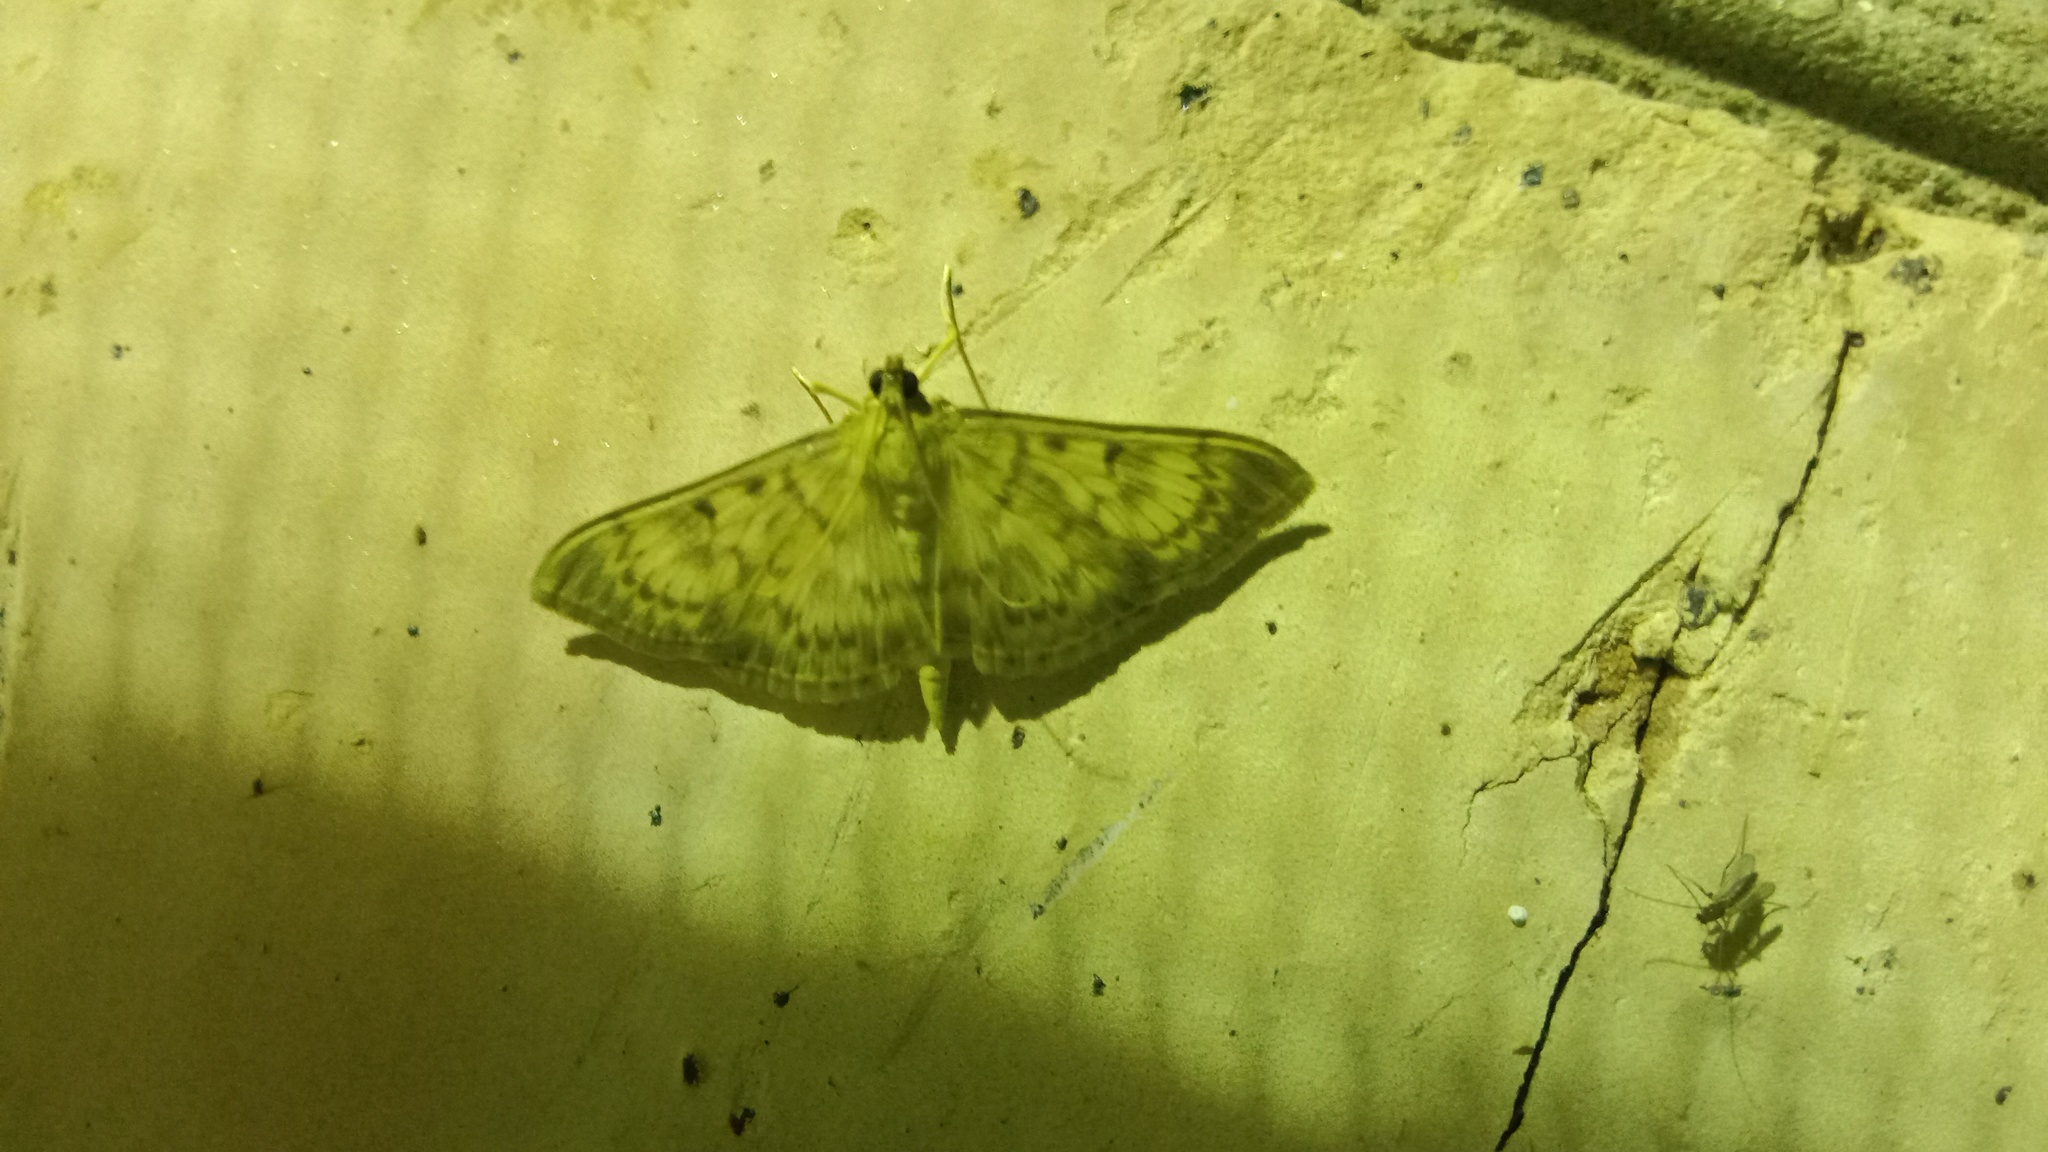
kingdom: Animalia
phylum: Arthropoda
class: Insecta
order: Lepidoptera
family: Crambidae
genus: Patania
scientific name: Patania ruralis
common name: Mother of pearl
